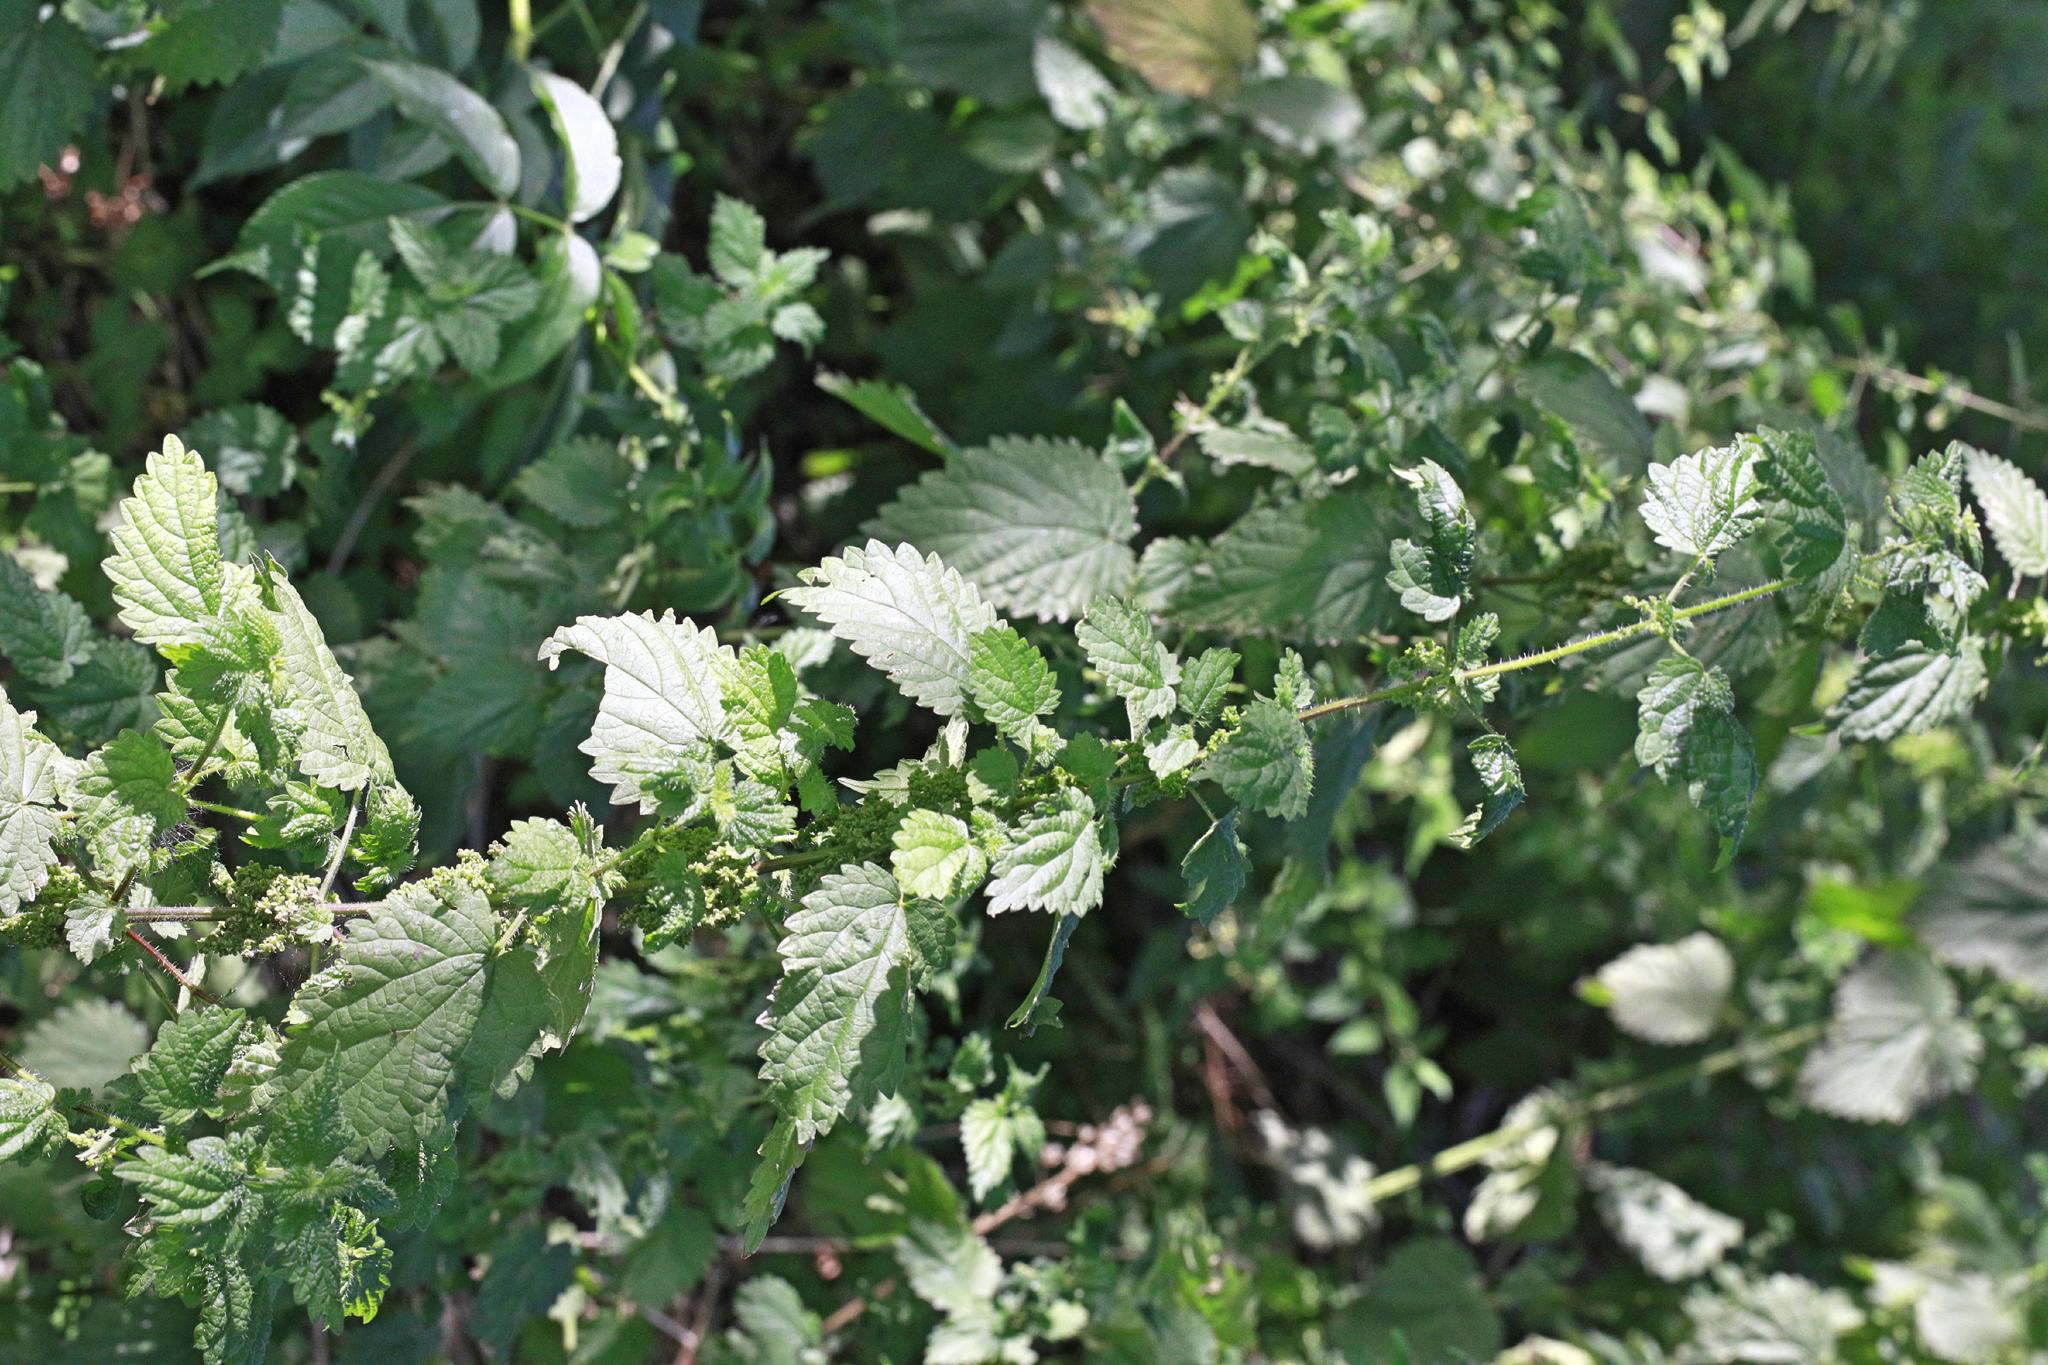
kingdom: Plantae
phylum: Tracheophyta
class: Magnoliopsida
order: Rosales
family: Urticaceae
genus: Urtica
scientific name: Urtica dioica
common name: Common nettle
